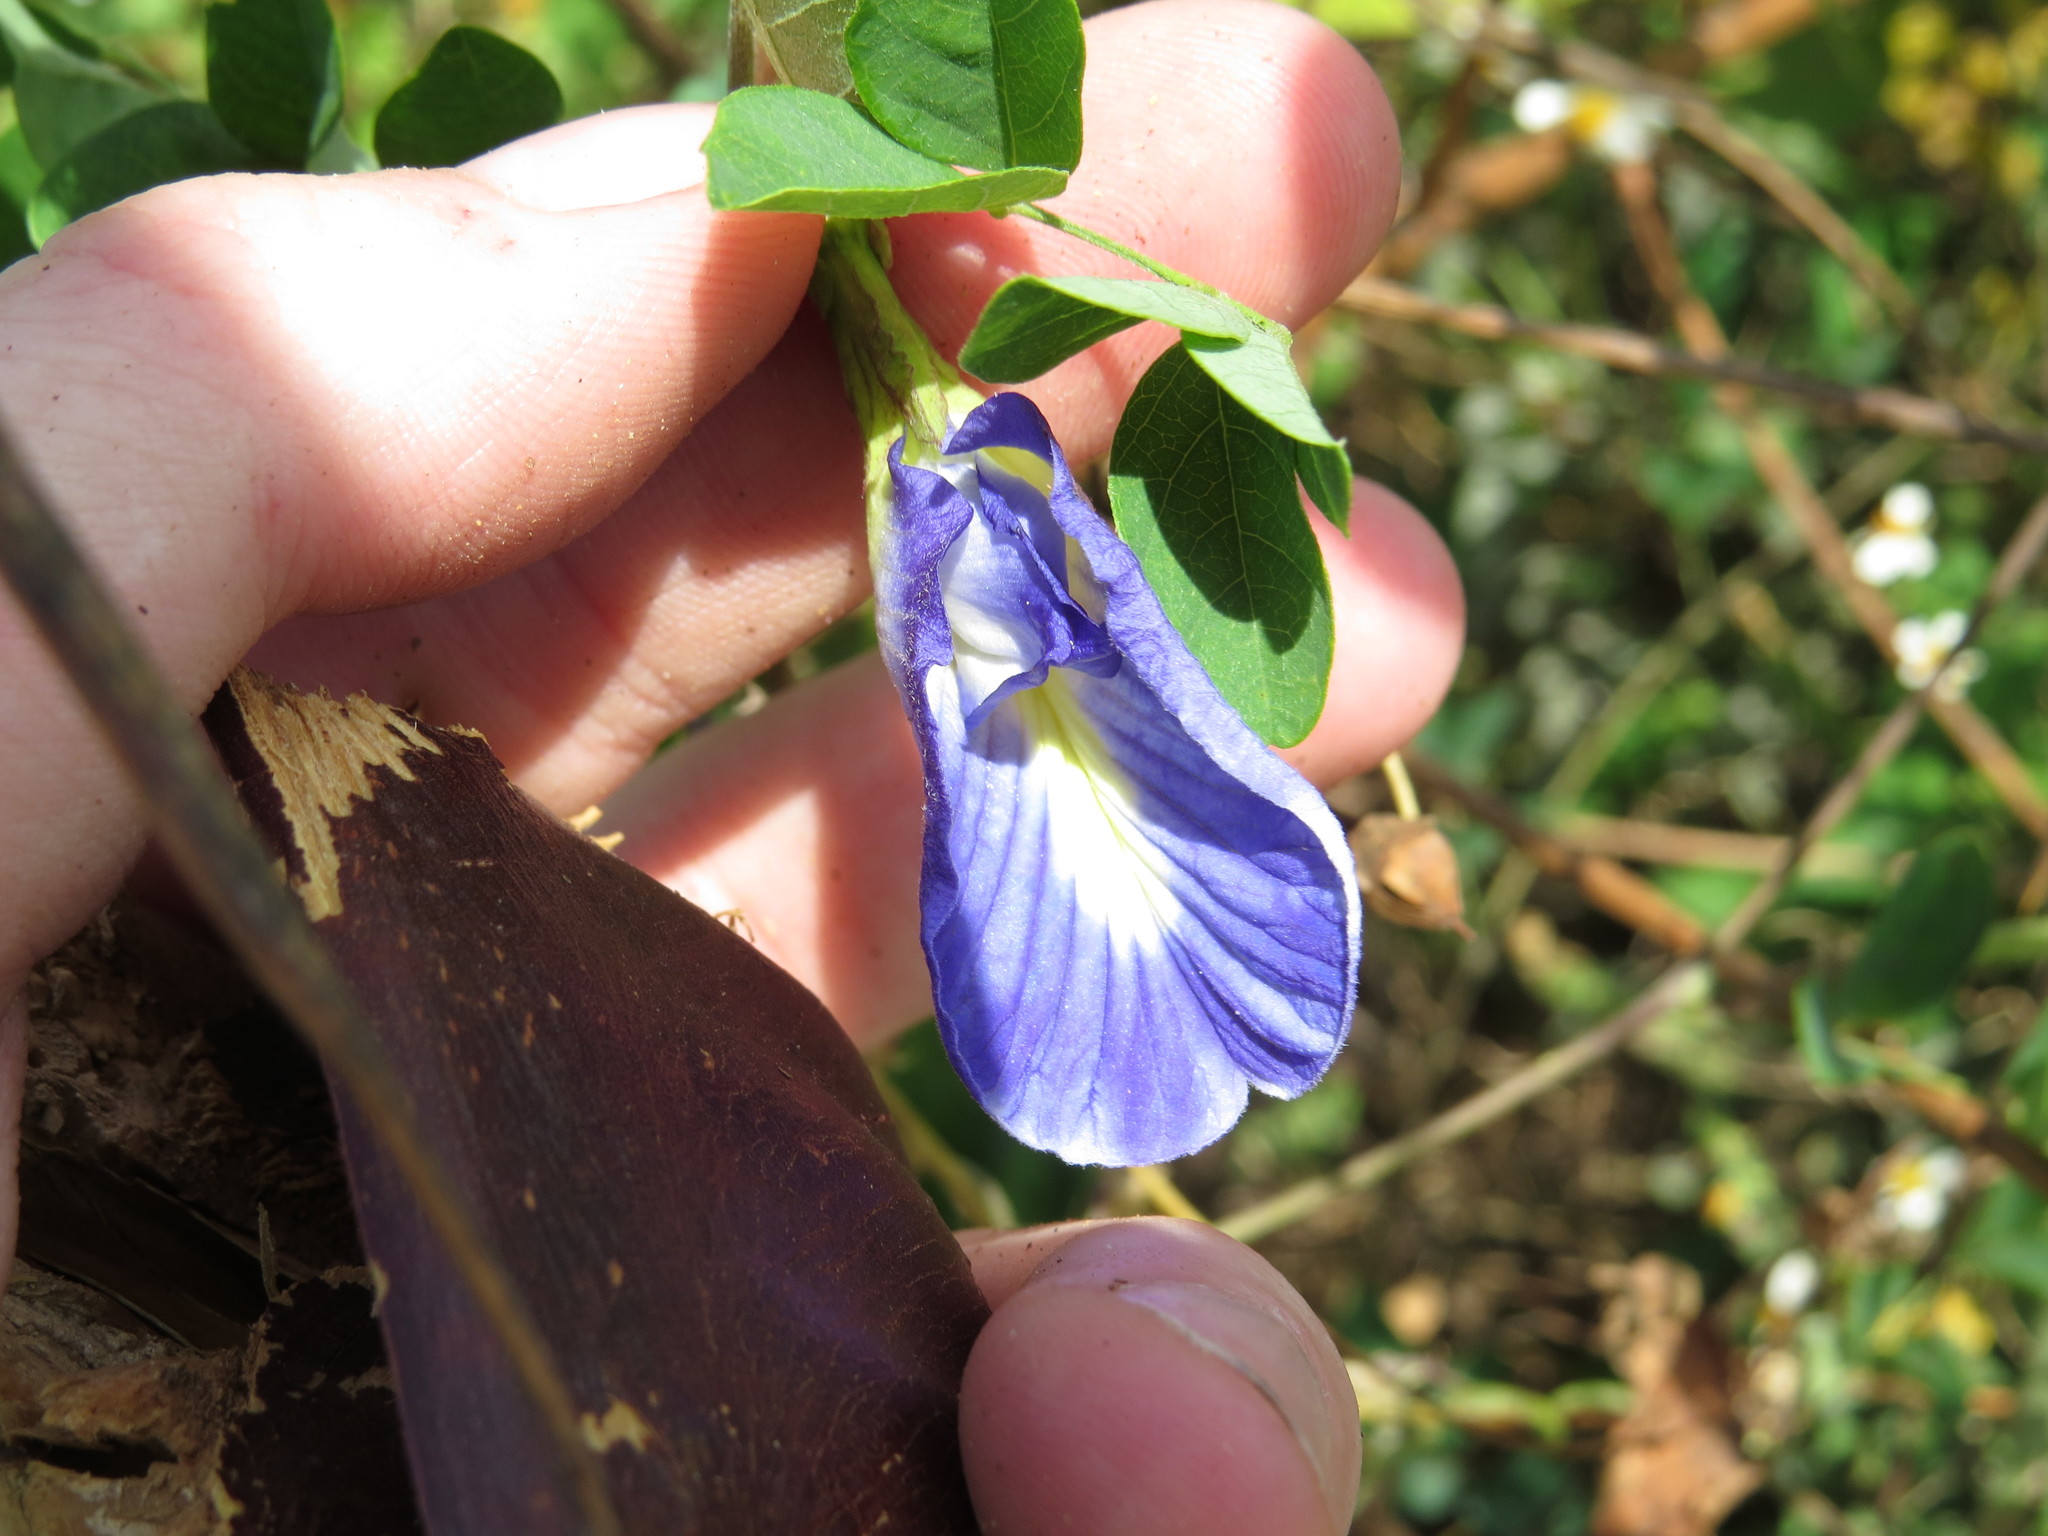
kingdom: Plantae
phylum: Tracheophyta
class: Magnoliopsida
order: Fabales
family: Fabaceae
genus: Clitoria
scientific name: Clitoria ternatea
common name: Asian pigeonwings
